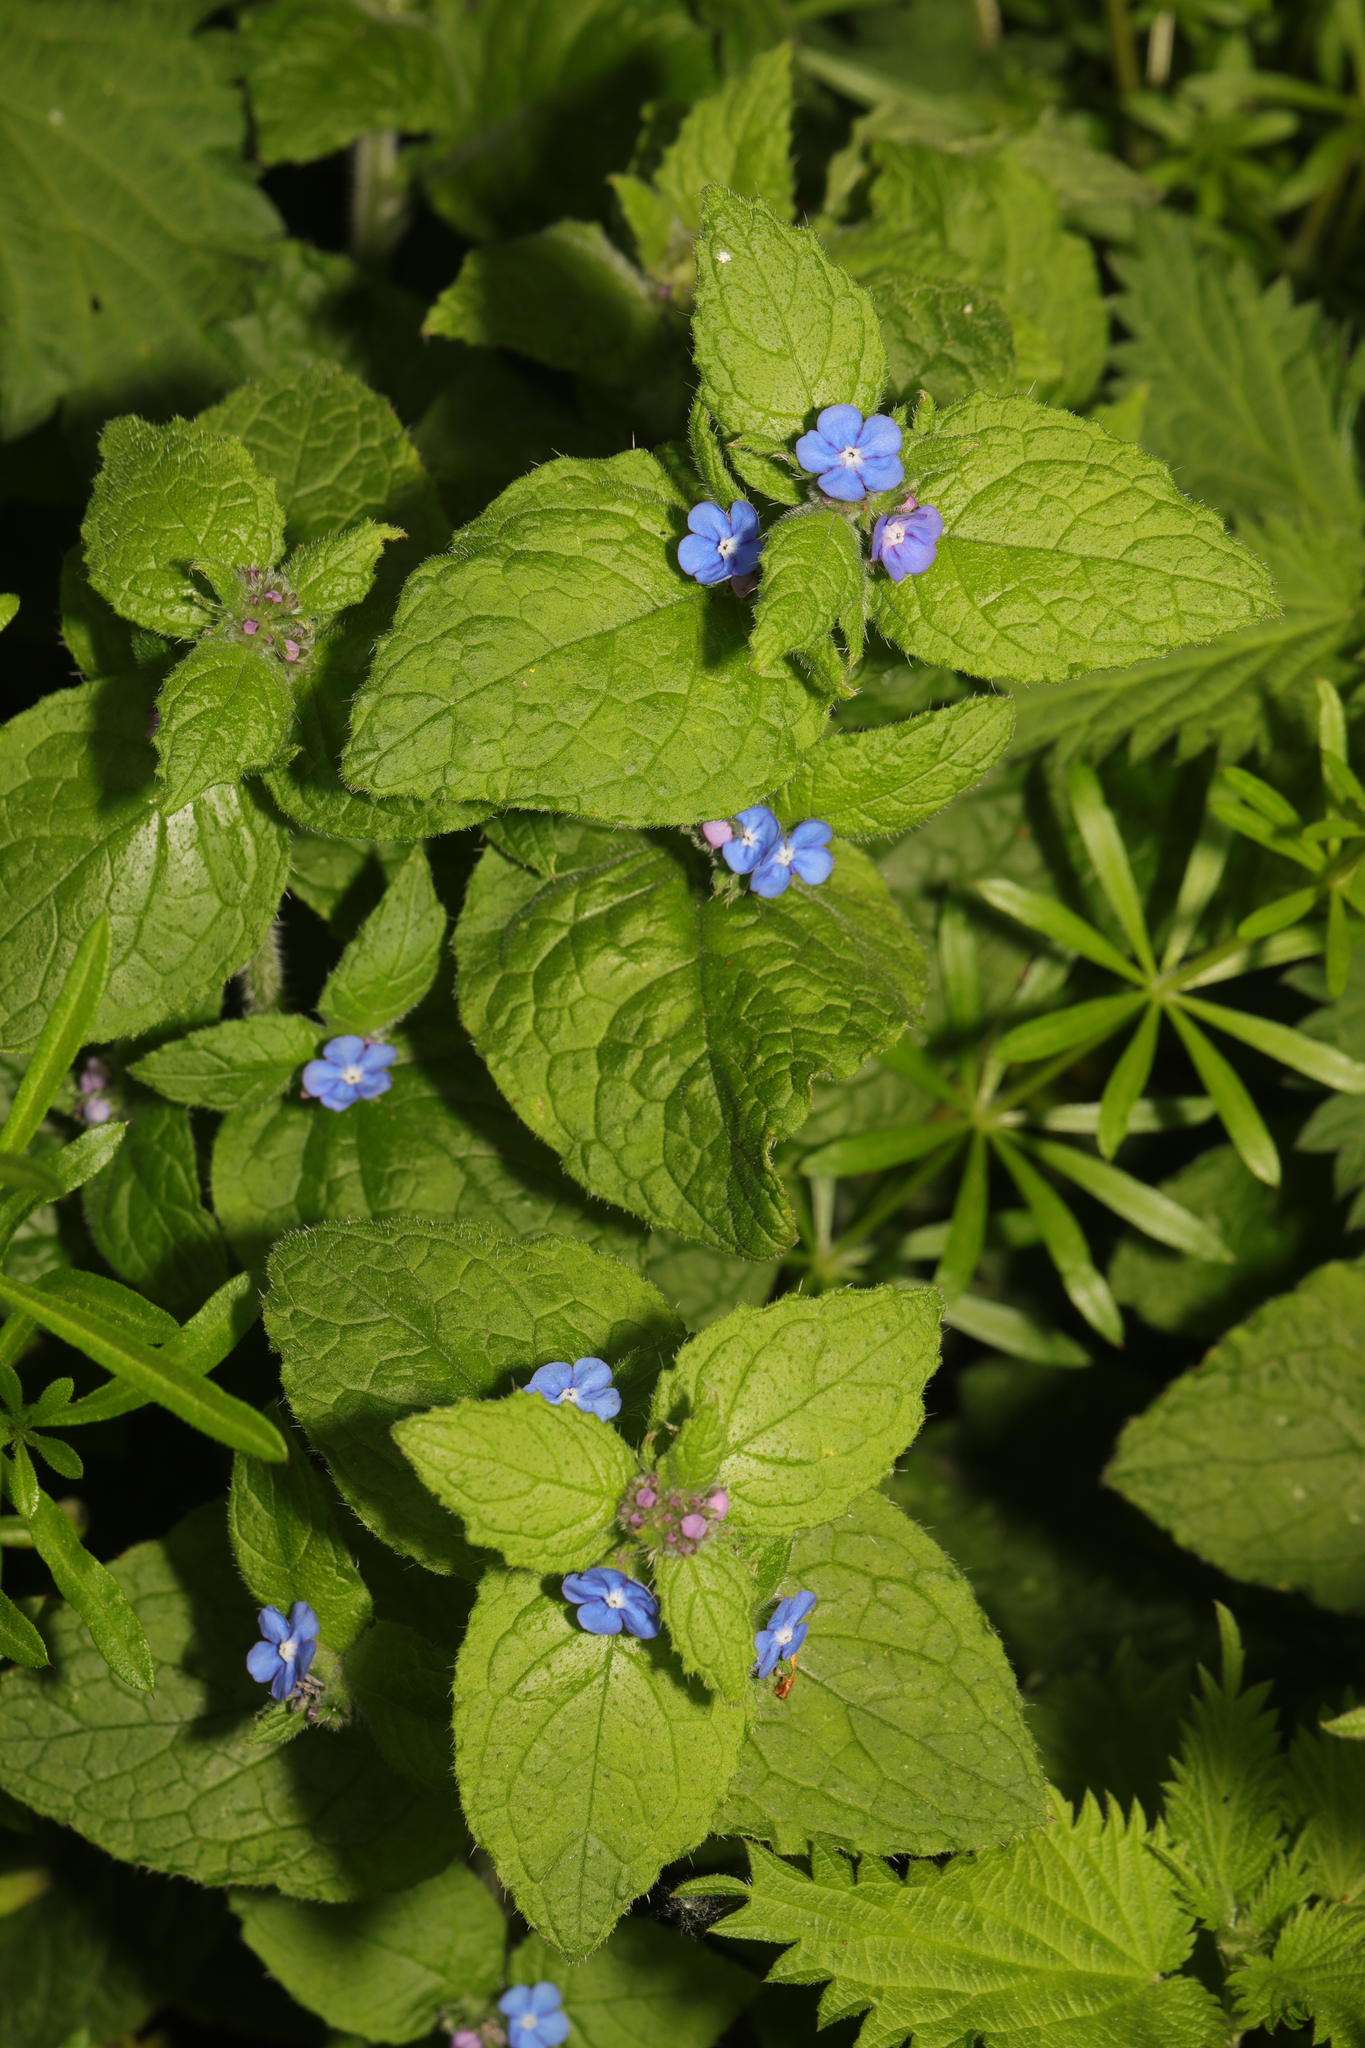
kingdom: Plantae
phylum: Tracheophyta
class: Magnoliopsida
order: Boraginales
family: Boraginaceae
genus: Pentaglottis
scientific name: Pentaglottis sempervirens
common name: Green alkanet
